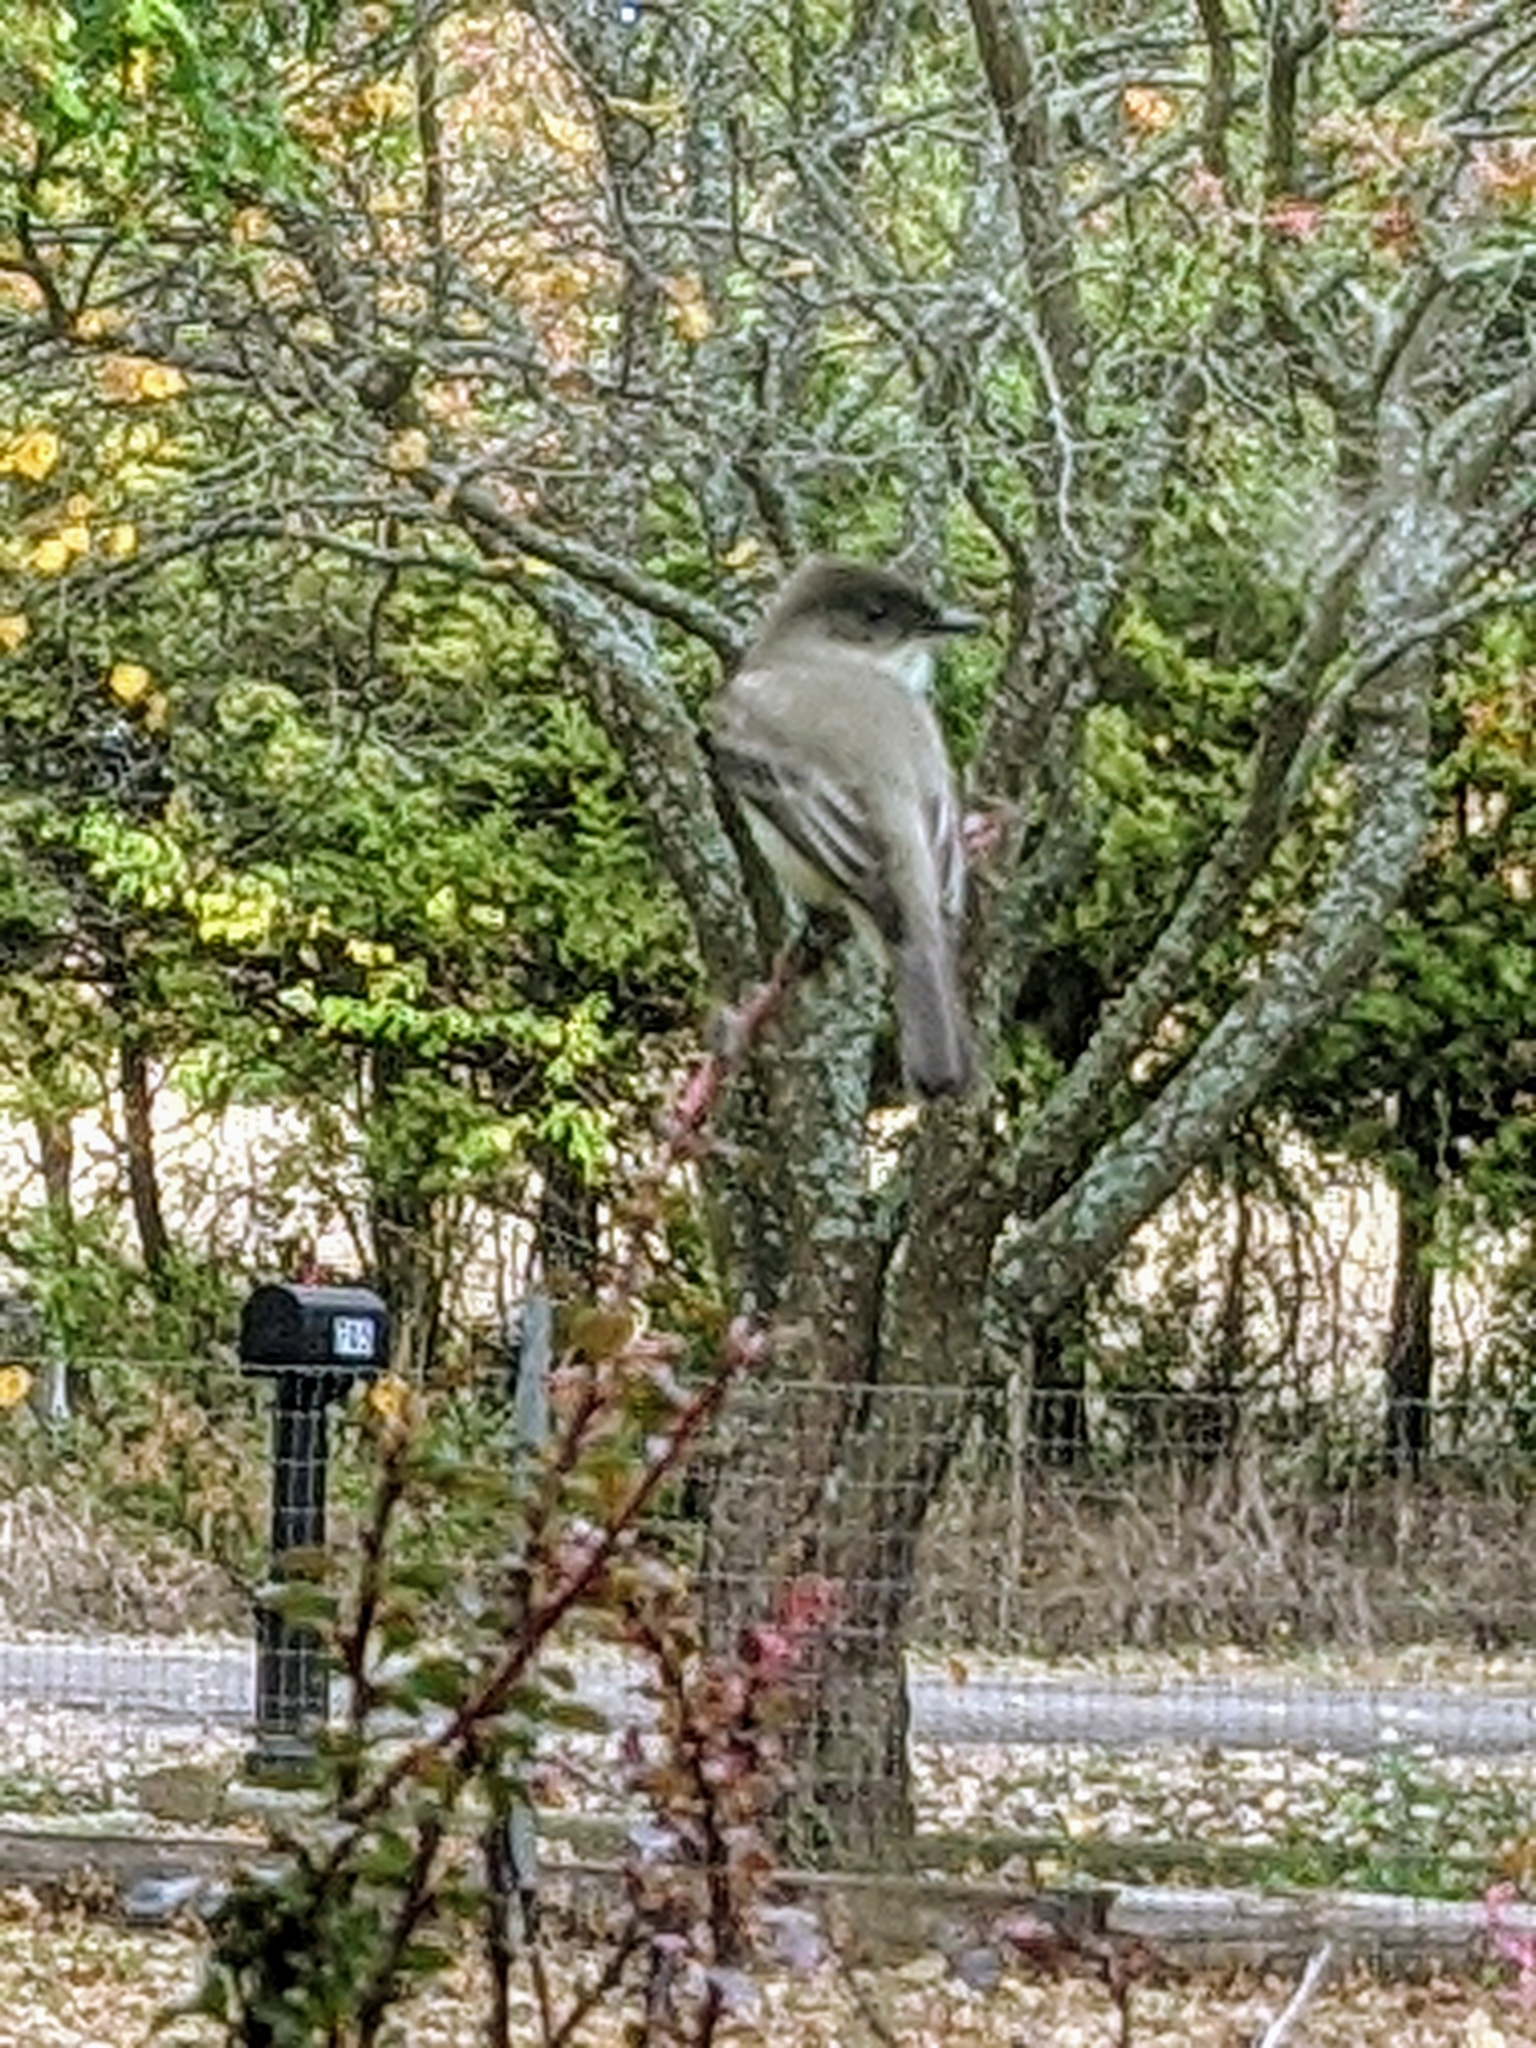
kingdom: Animalia
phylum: Chordata
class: Aves
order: Passeriformes
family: Tyrannidae
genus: Sayornis
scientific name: Sayornis phoebe
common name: Eastern phoebe
